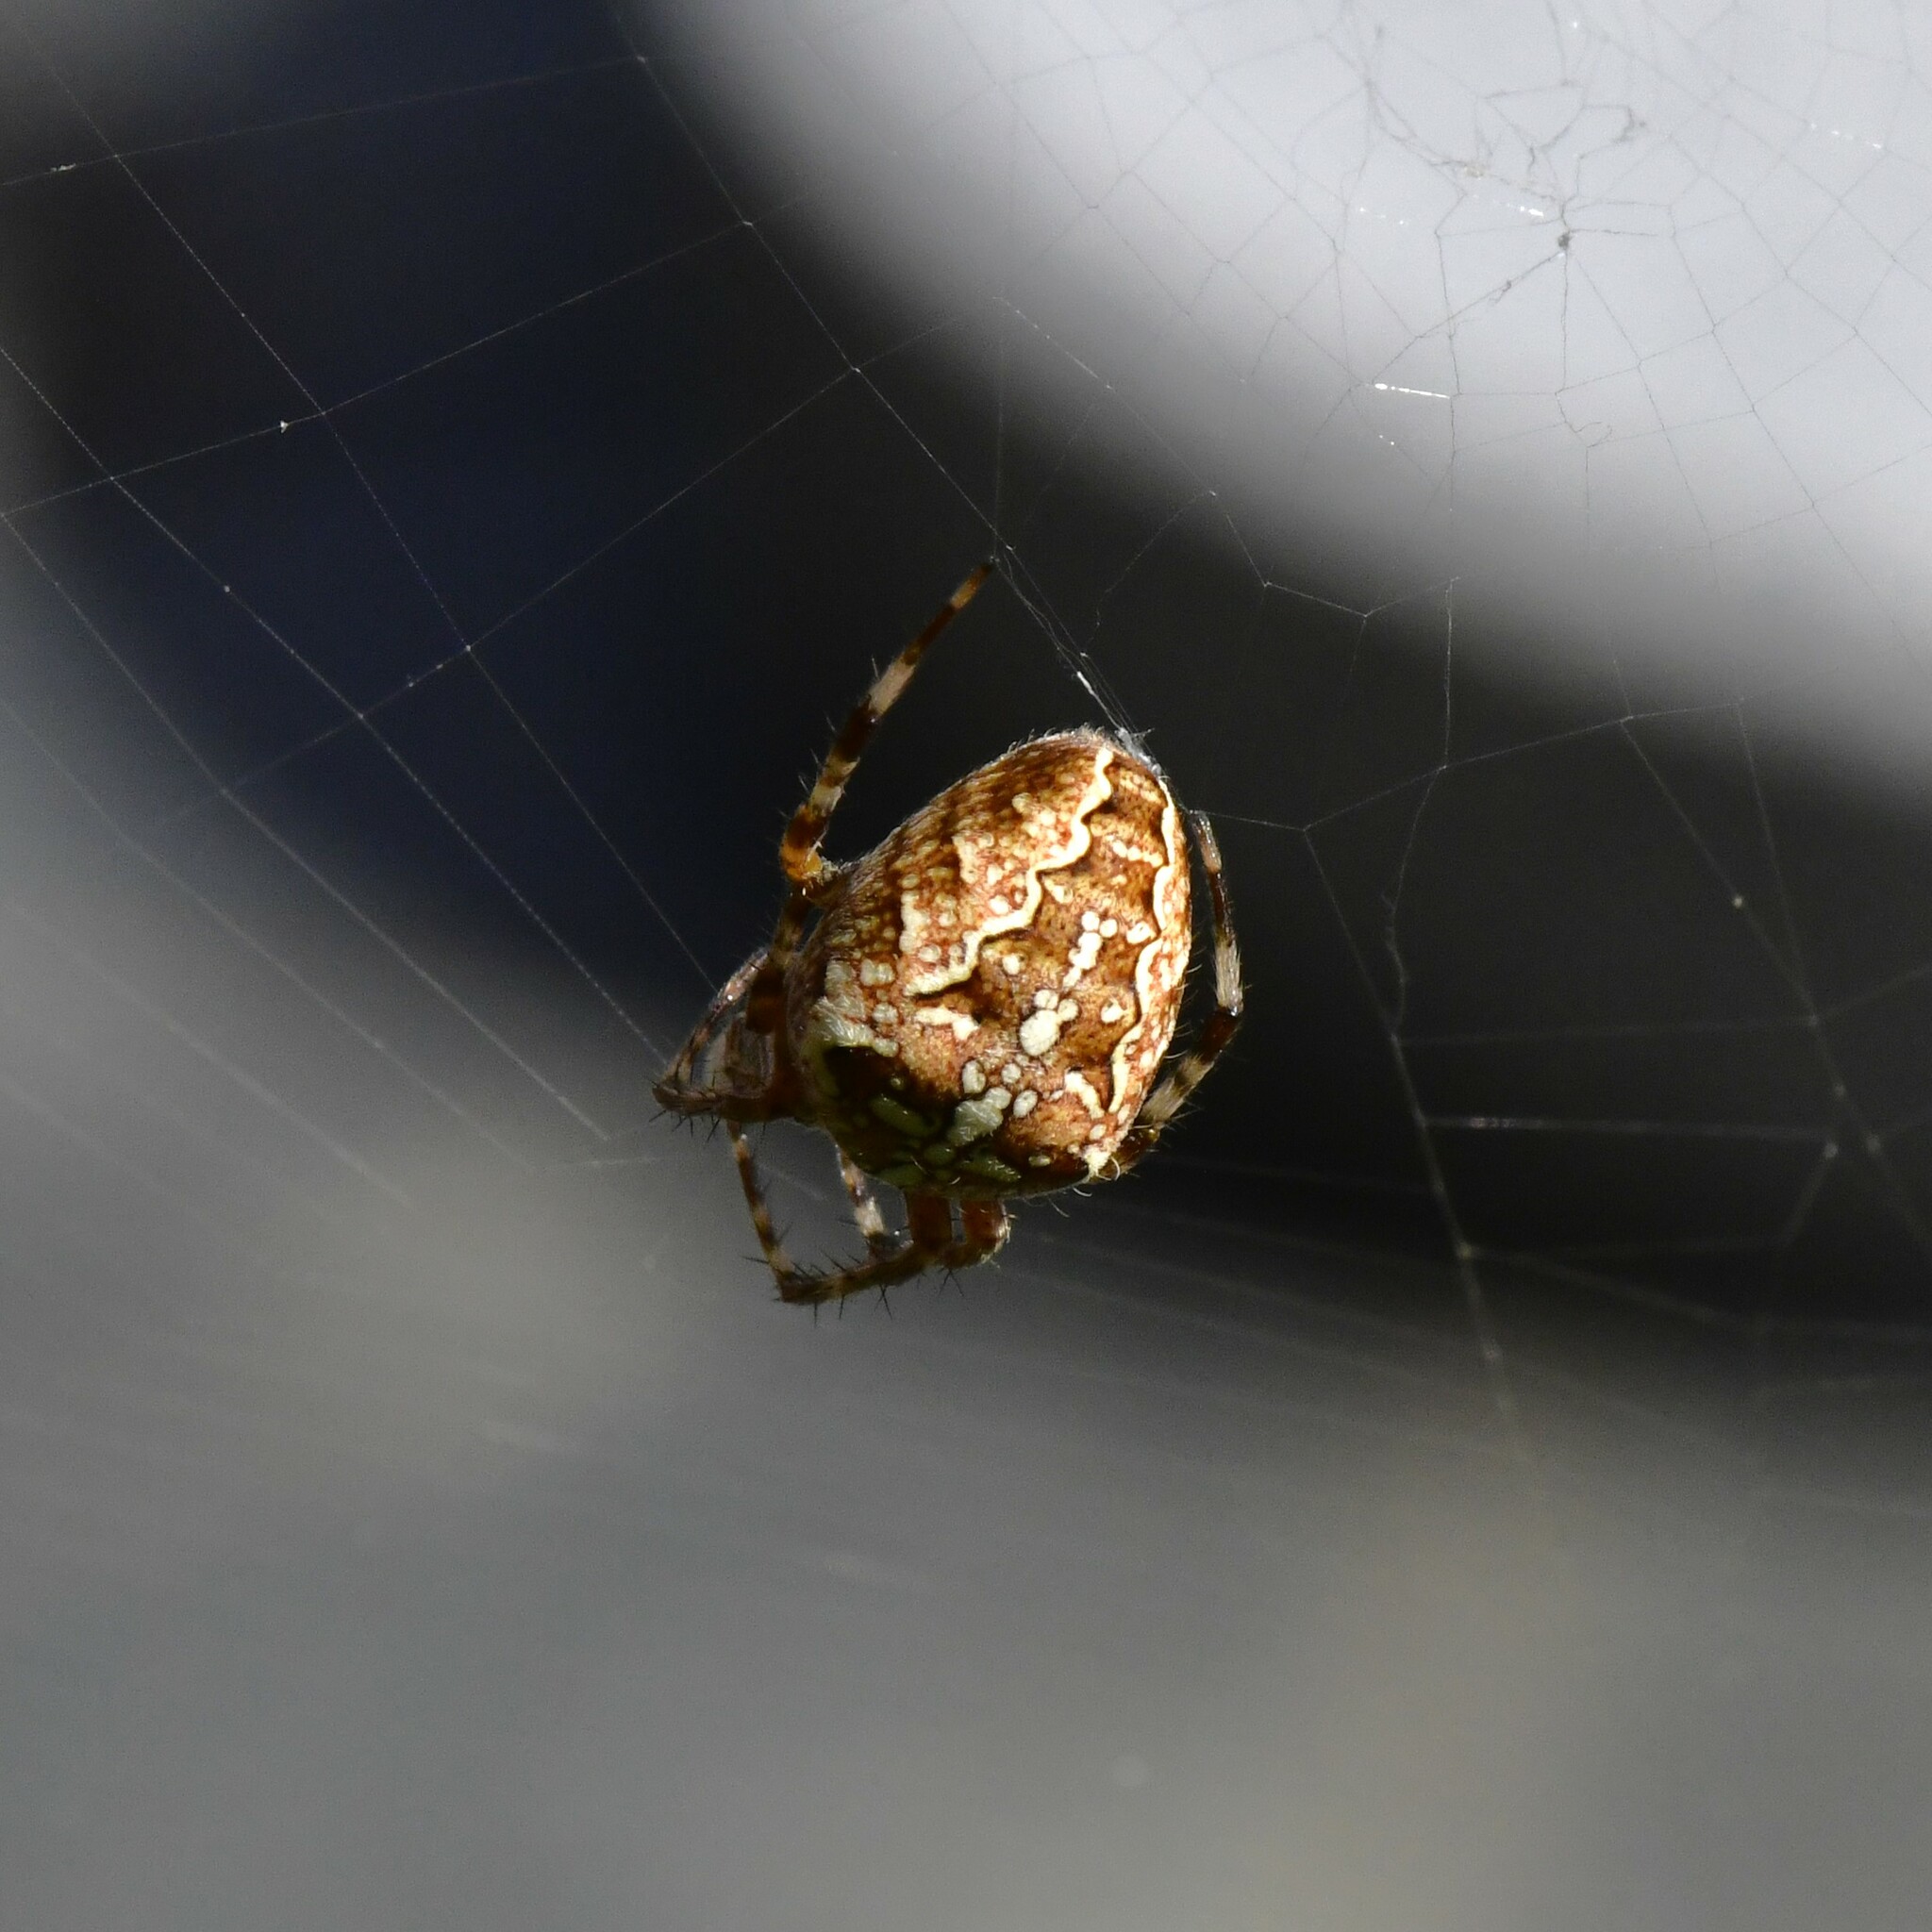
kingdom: Animalia
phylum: Arthropoda
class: Arachnida
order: Araneae
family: Araneidae
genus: Araneus
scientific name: Araneus diadematus
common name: Cross orbweaver
